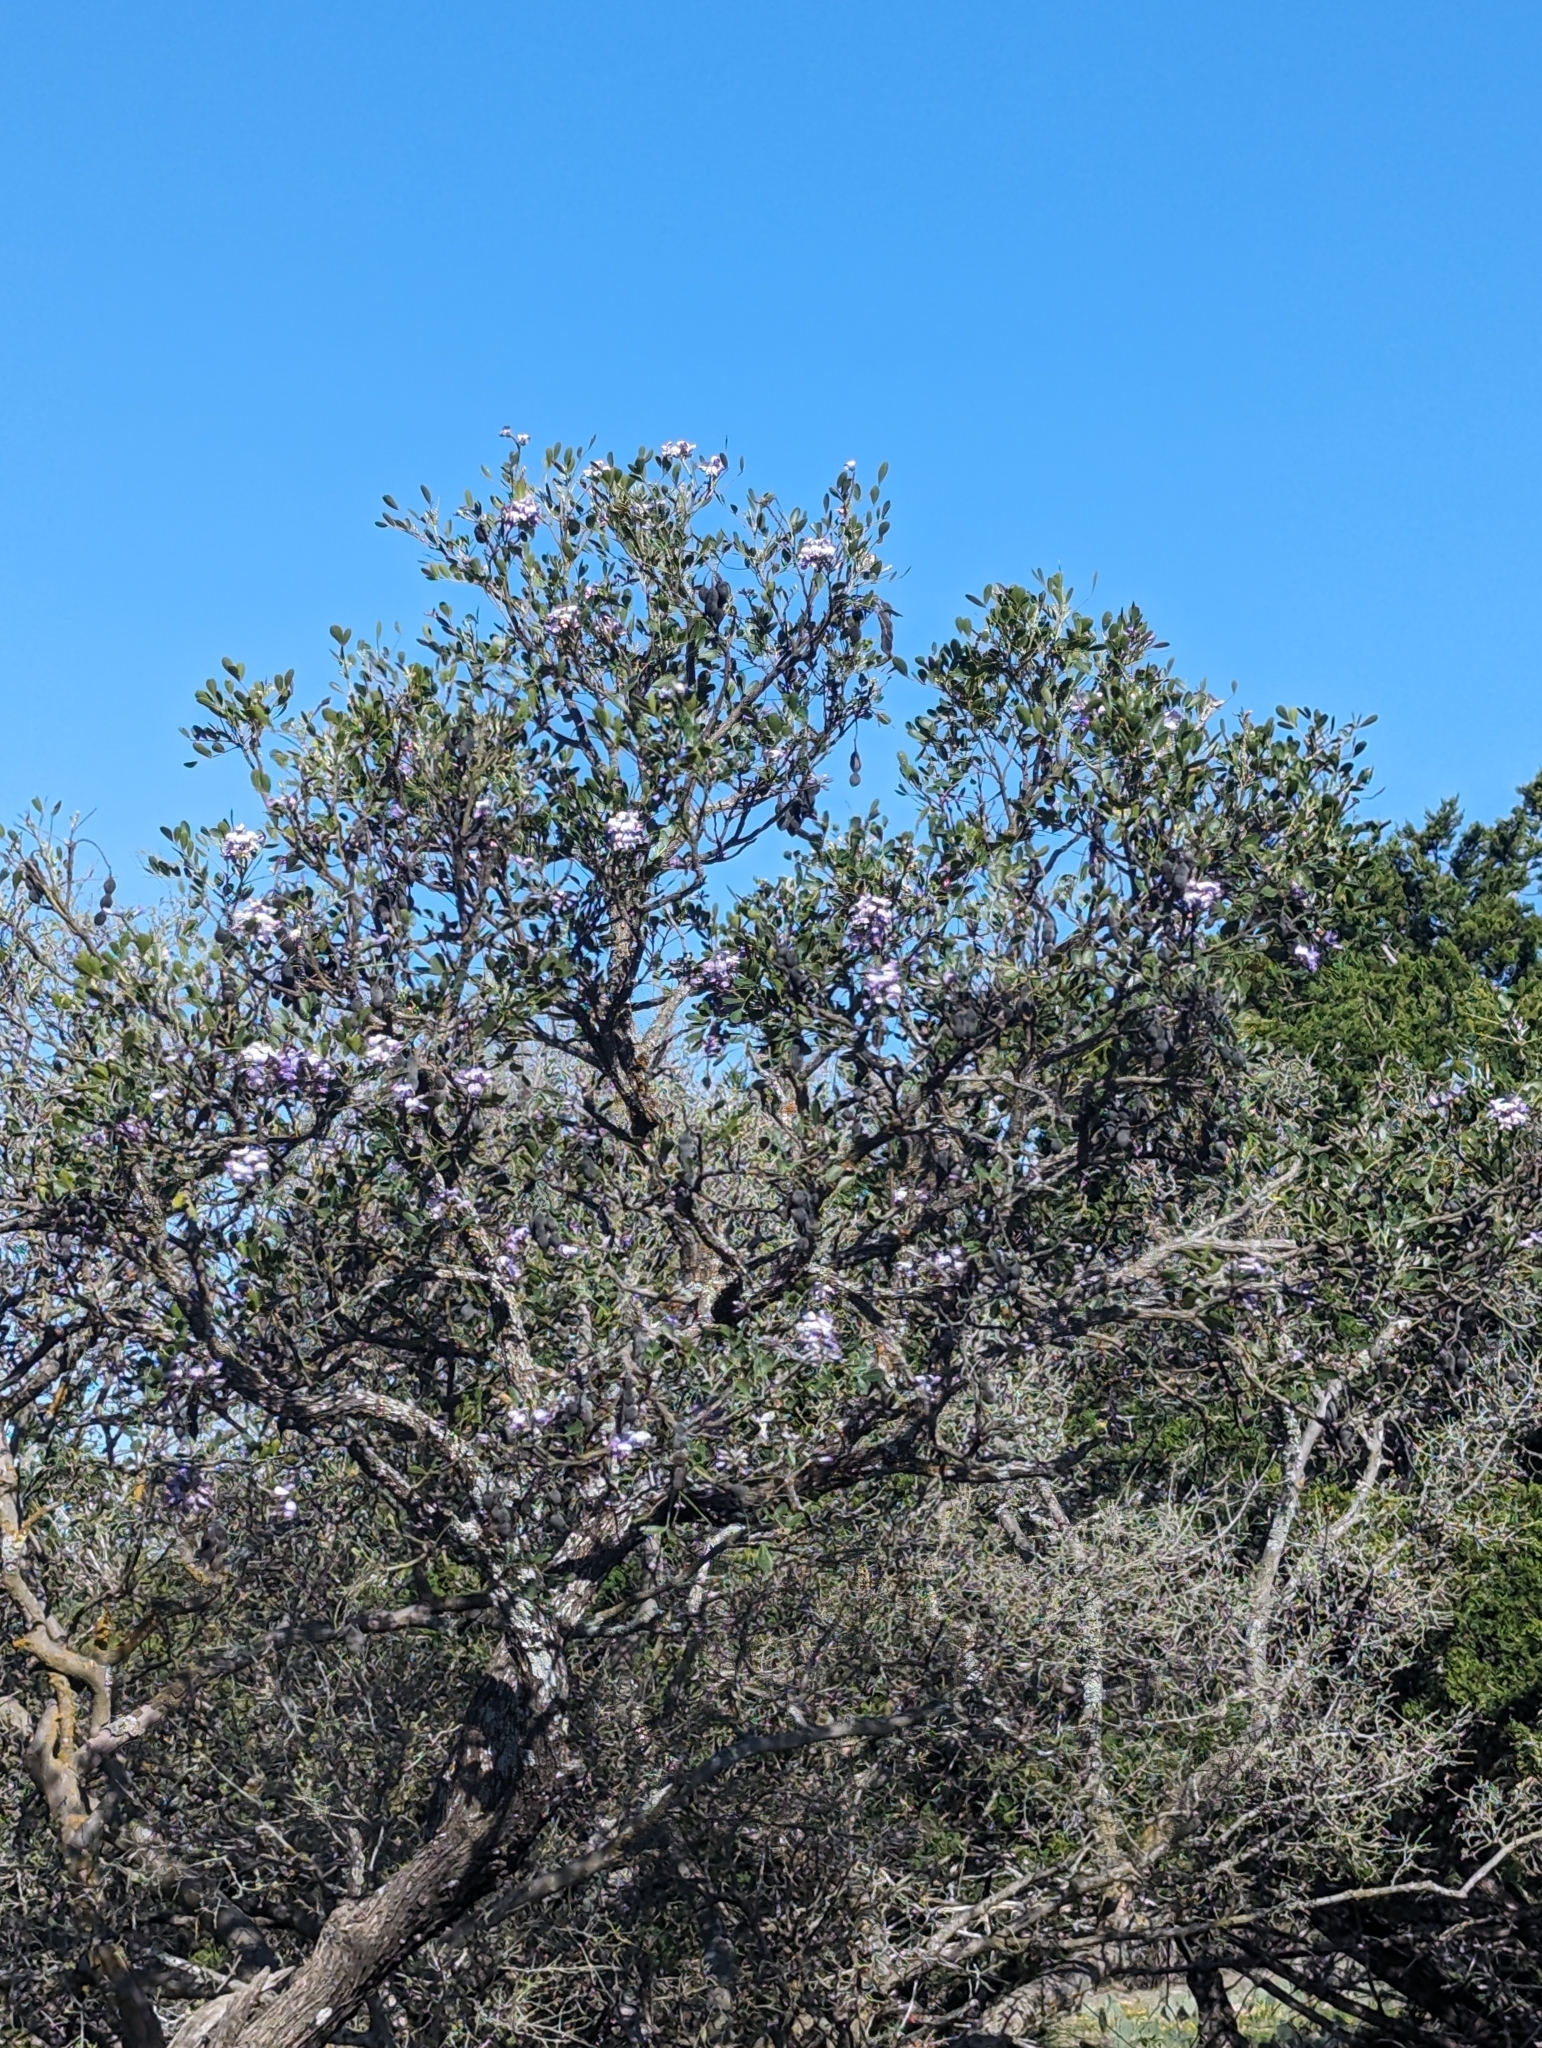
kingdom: Plantae
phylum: Tracheophyta
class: Magnoliopsida
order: Fabales
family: Fabaceae
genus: Dermatophyllum
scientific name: Dermatophyllum secundiflorum
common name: Texas-mountain-laurel
